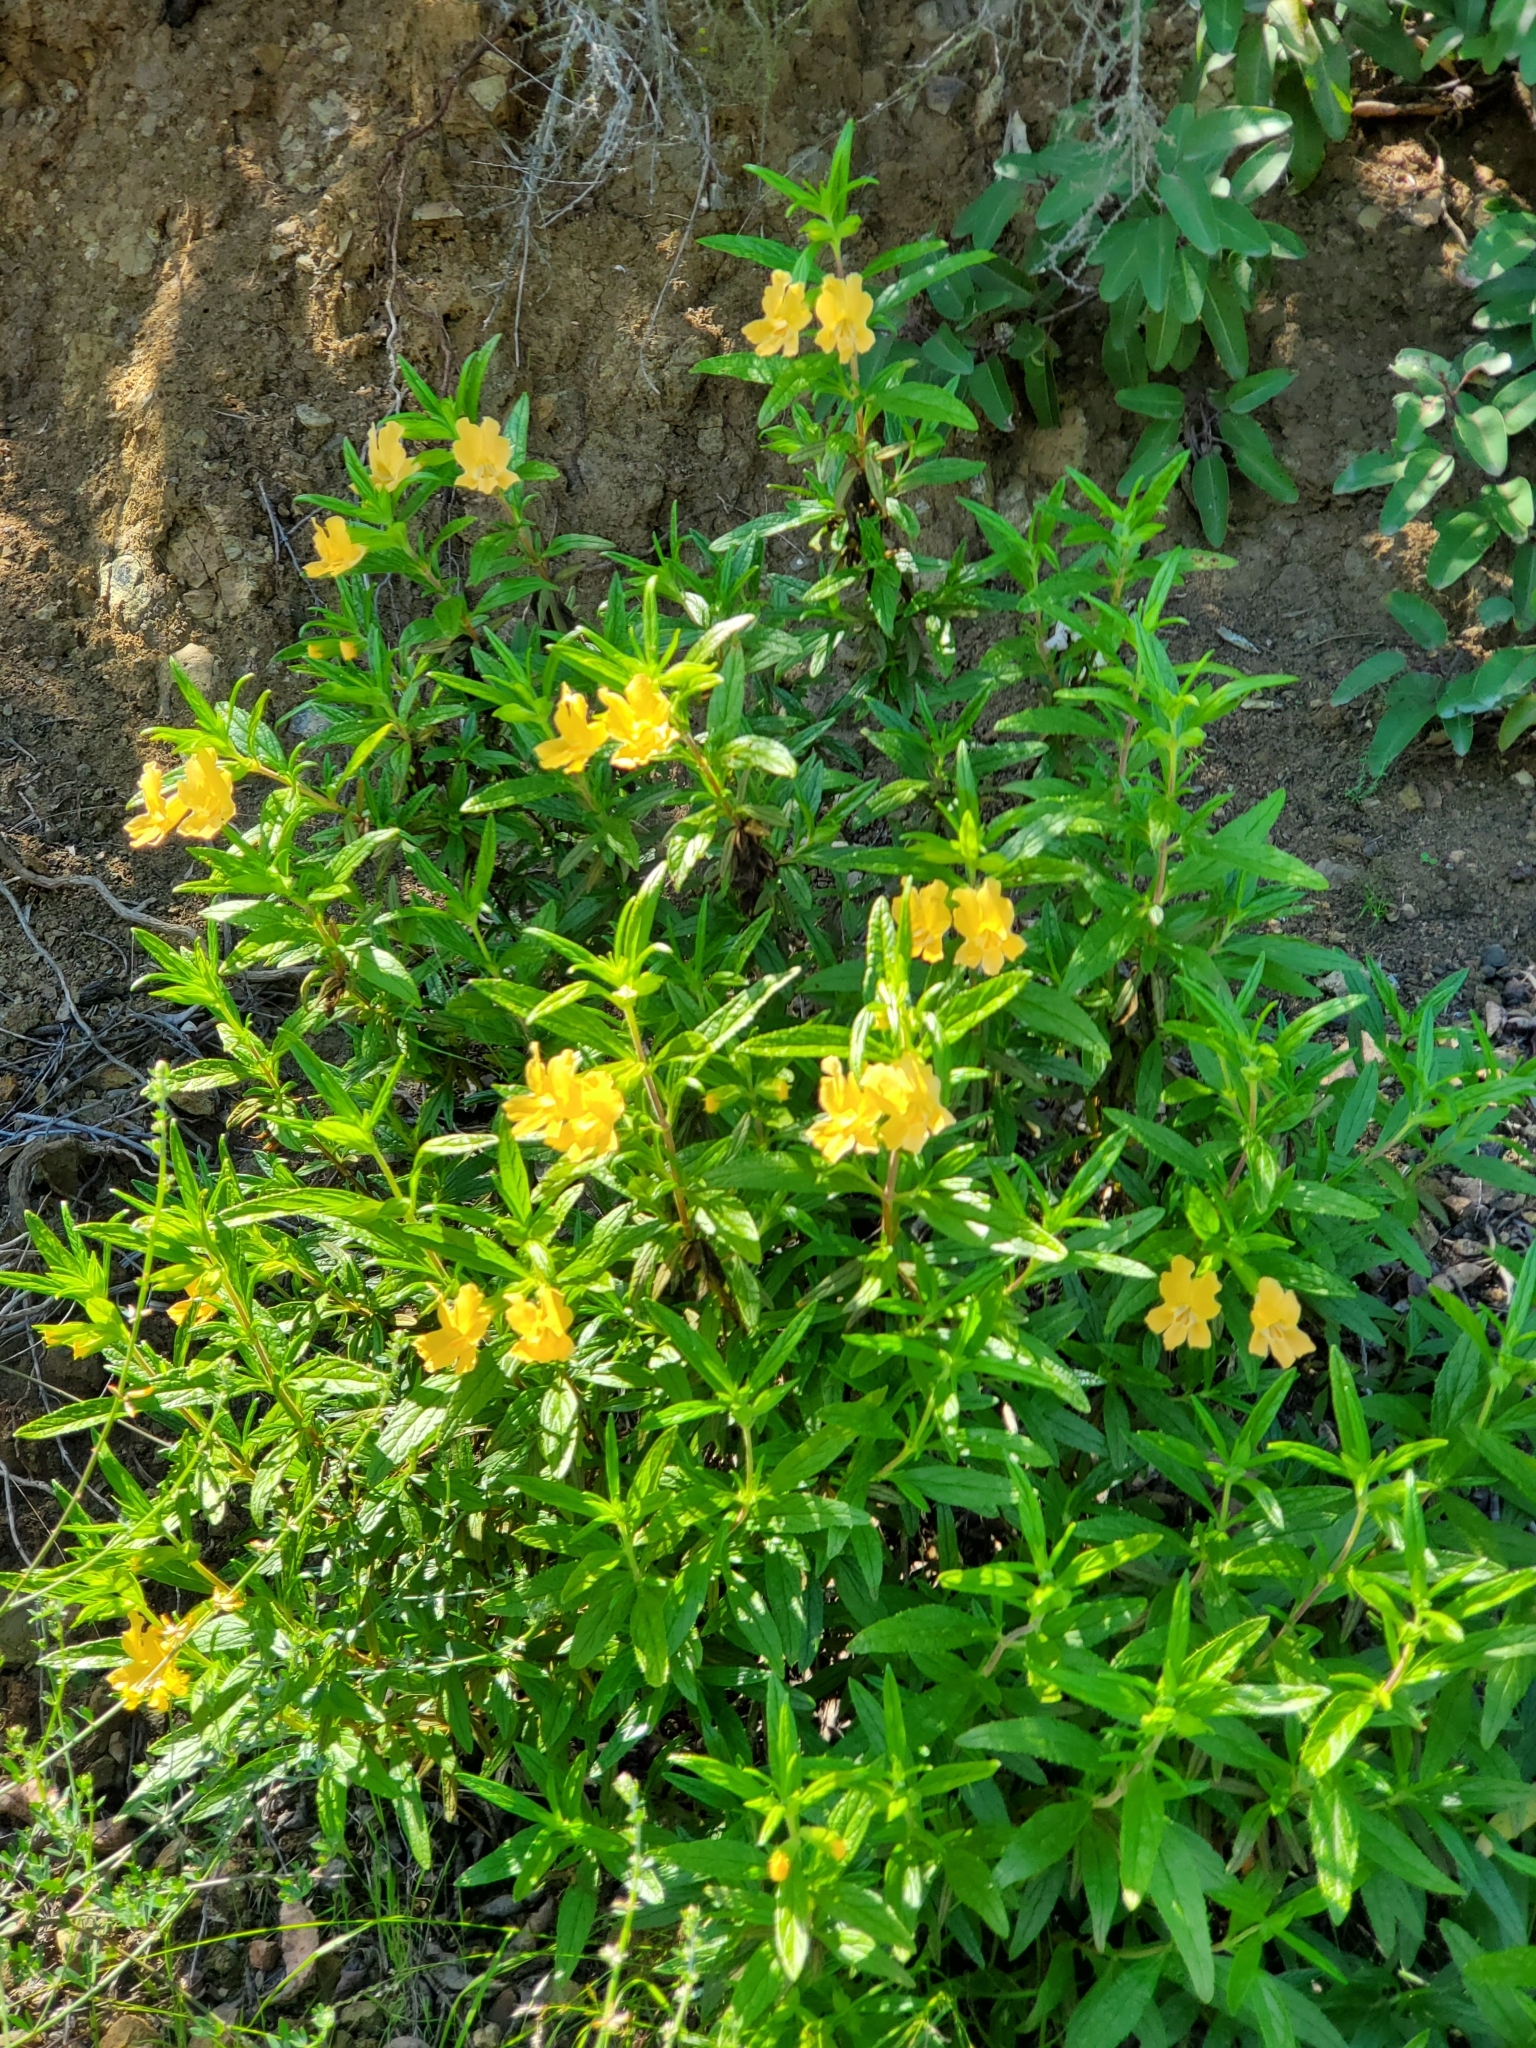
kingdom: Plantae
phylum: Tracheophyta
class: Magnoliopsida
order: Lamiales
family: Phrymaceae
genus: Diplacus
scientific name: Diplacus longiflorus
